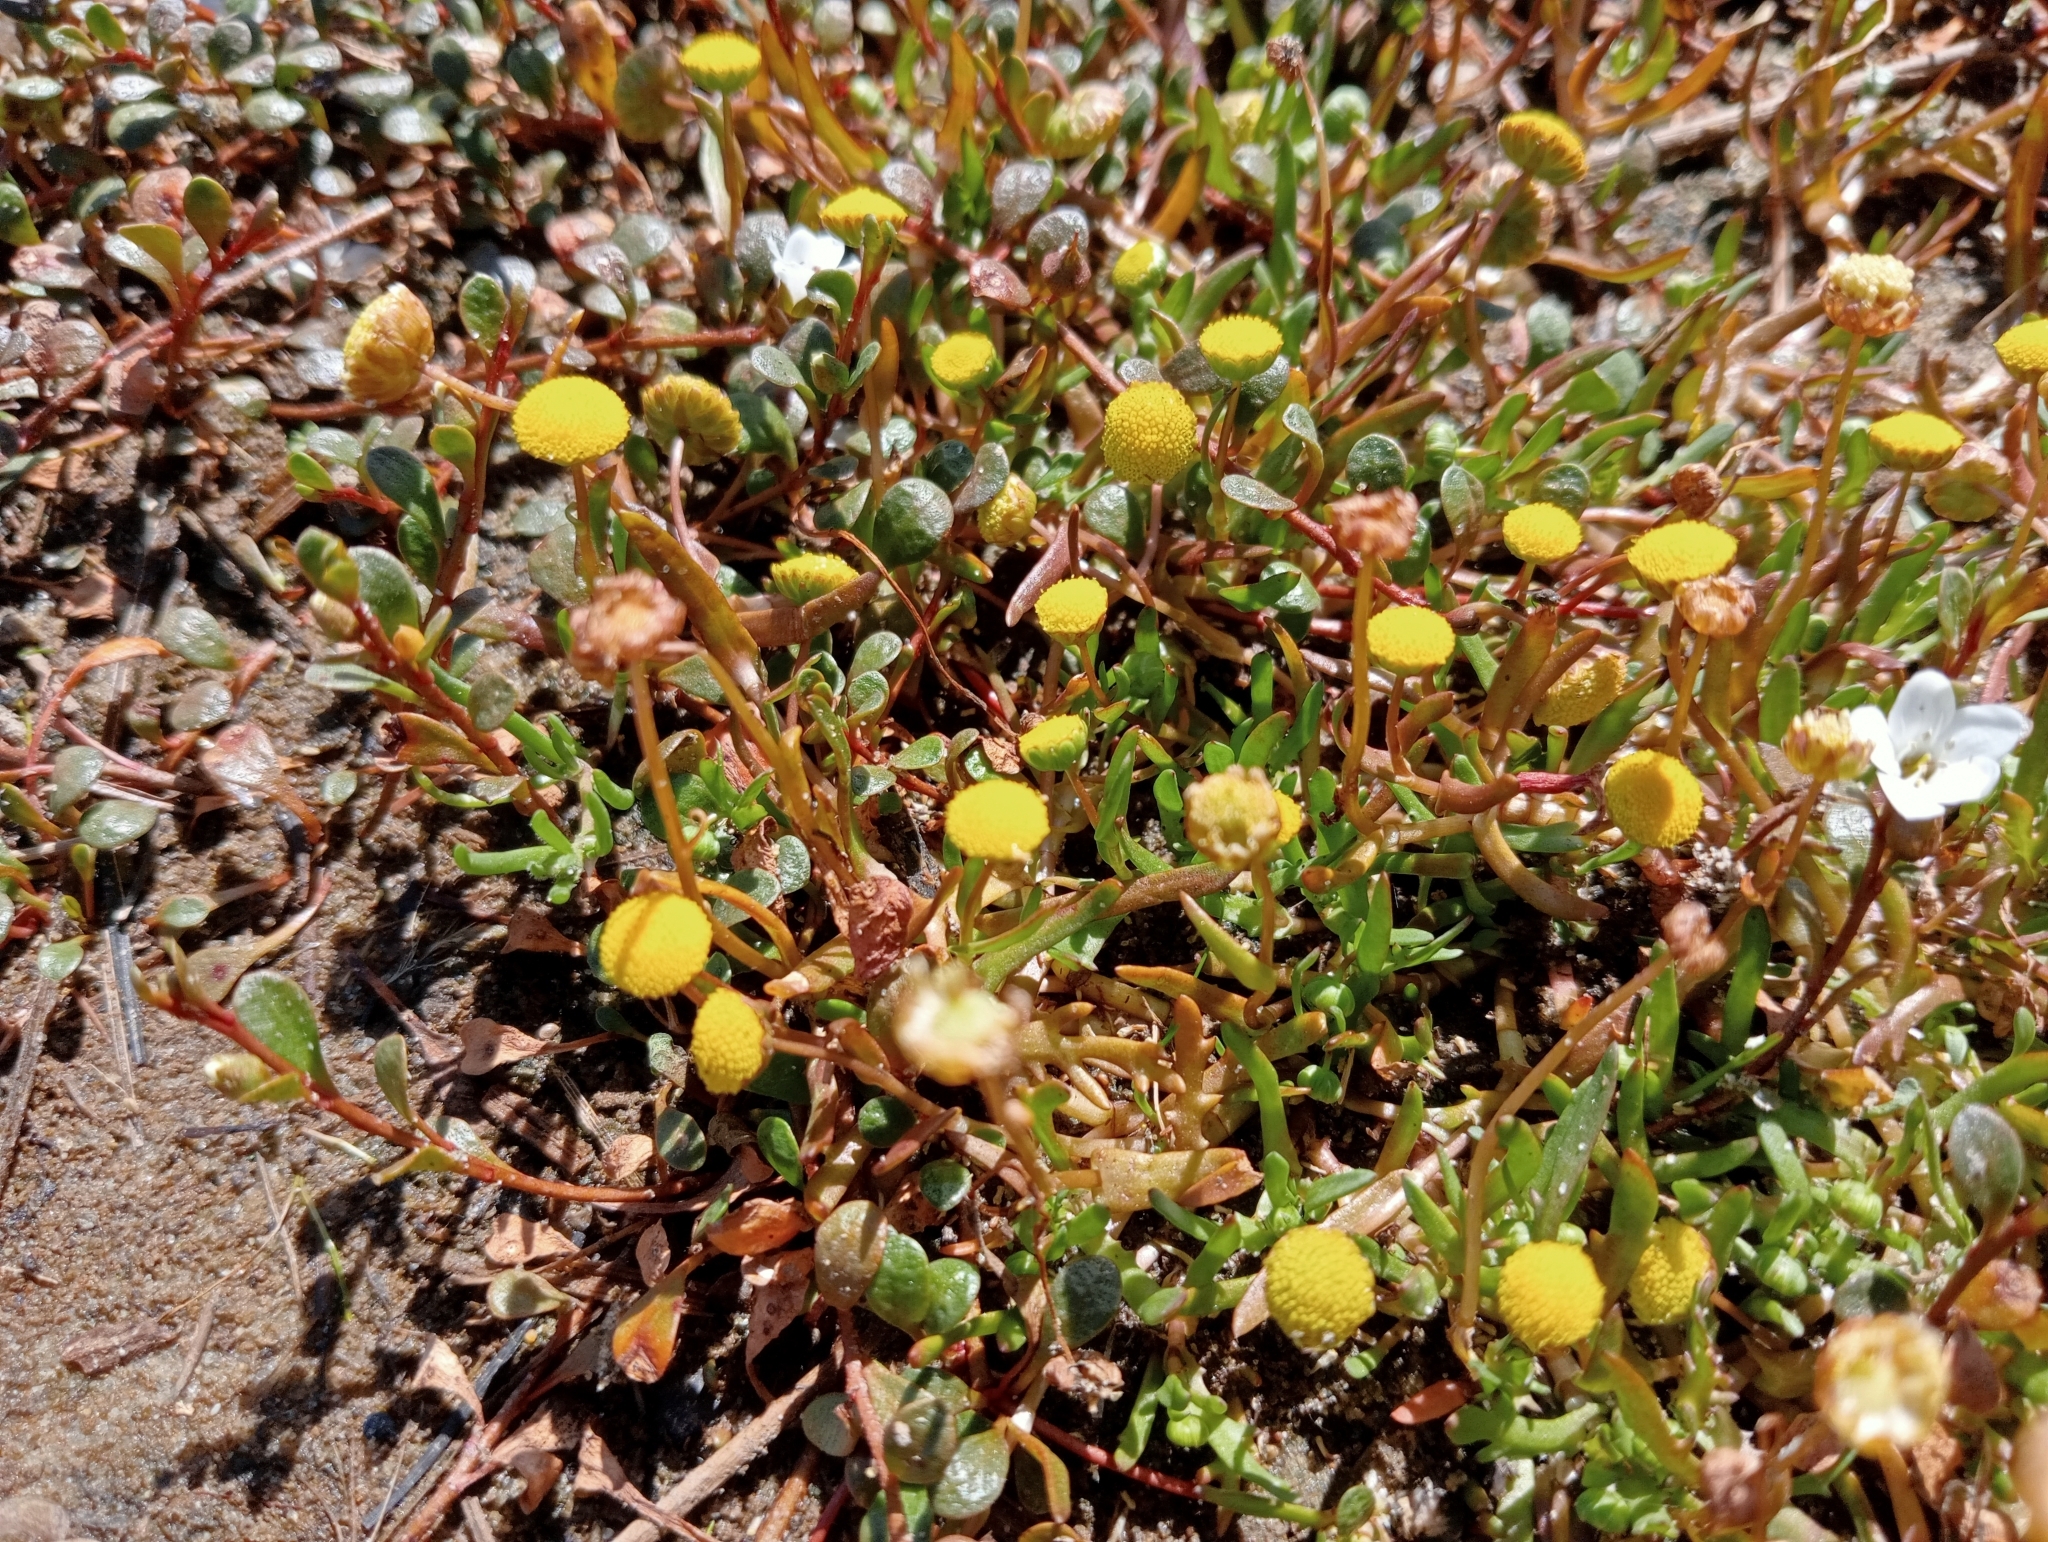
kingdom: Plantae
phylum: Tracheophyta
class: Magnoliopsida
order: Asterales
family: Asteraceae
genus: Cotula
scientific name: Cotula coronopifolia
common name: Buttonweed
